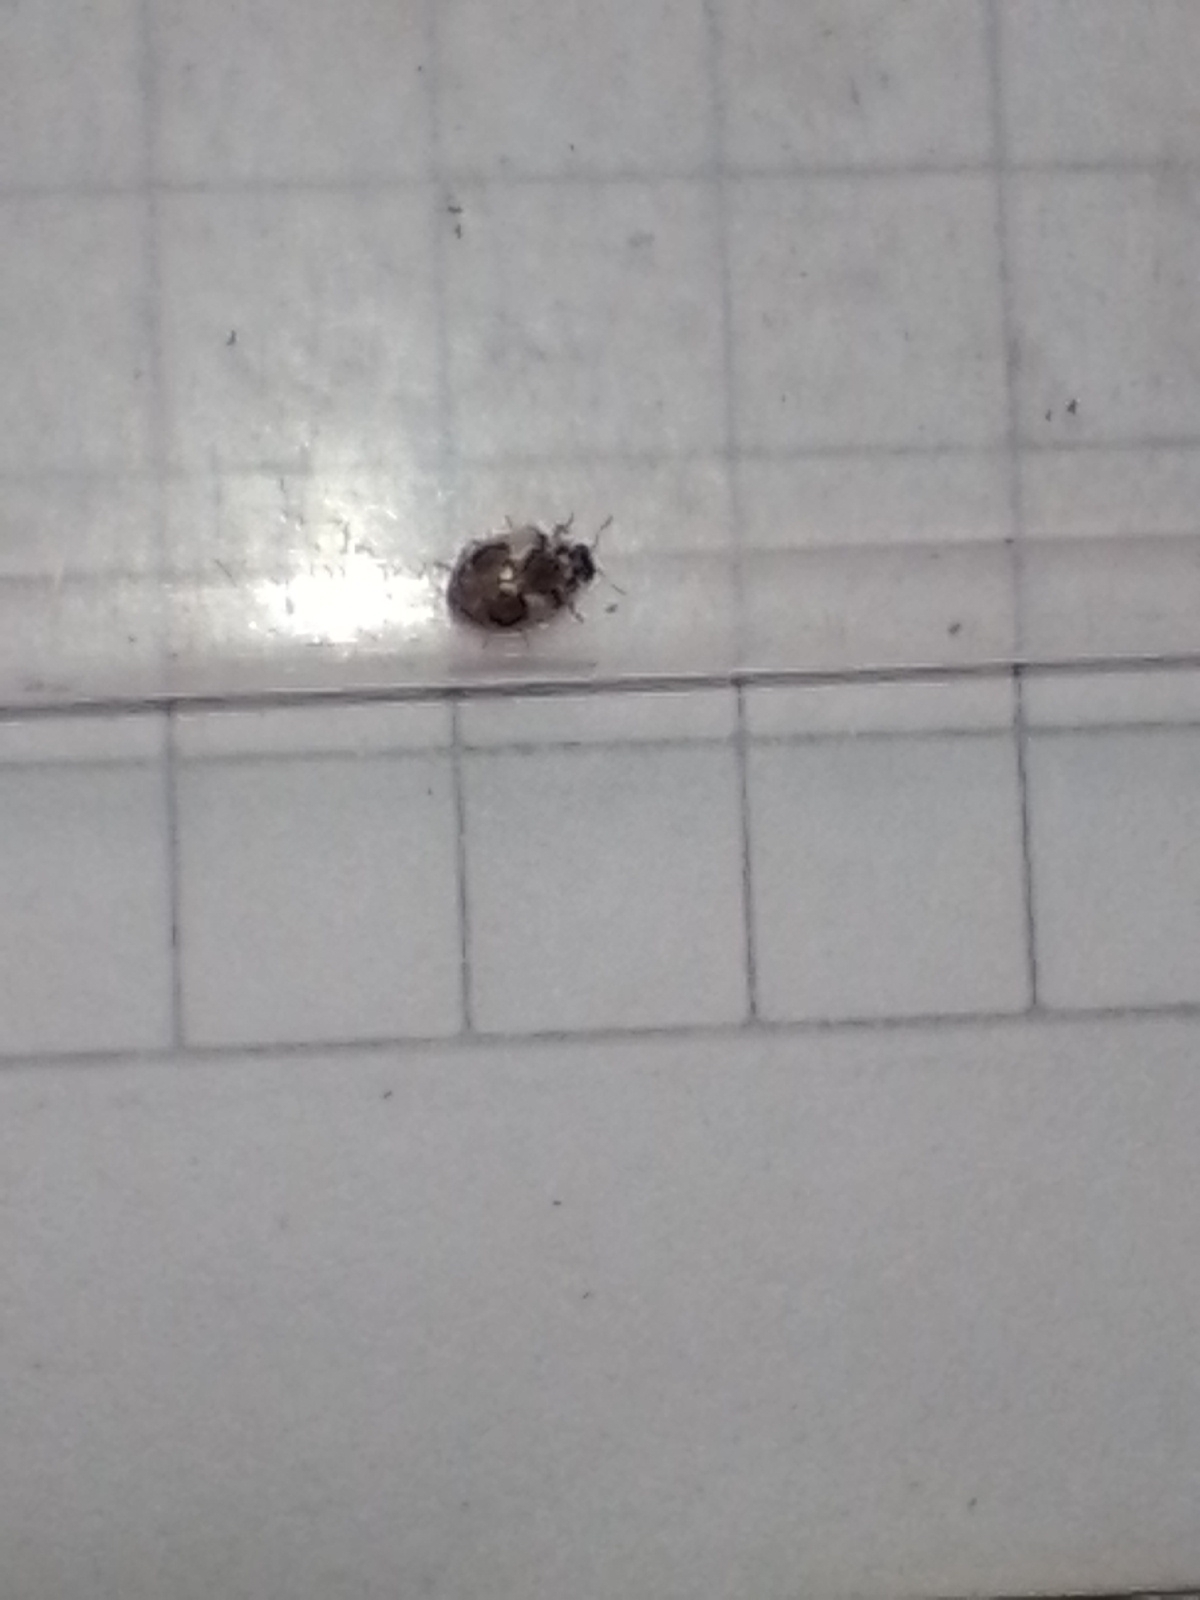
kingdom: Animalia
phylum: Arthropoda
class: Insecta
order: Coleoptera
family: Coccinellidae
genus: Psyllobora
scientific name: Psyllobora
